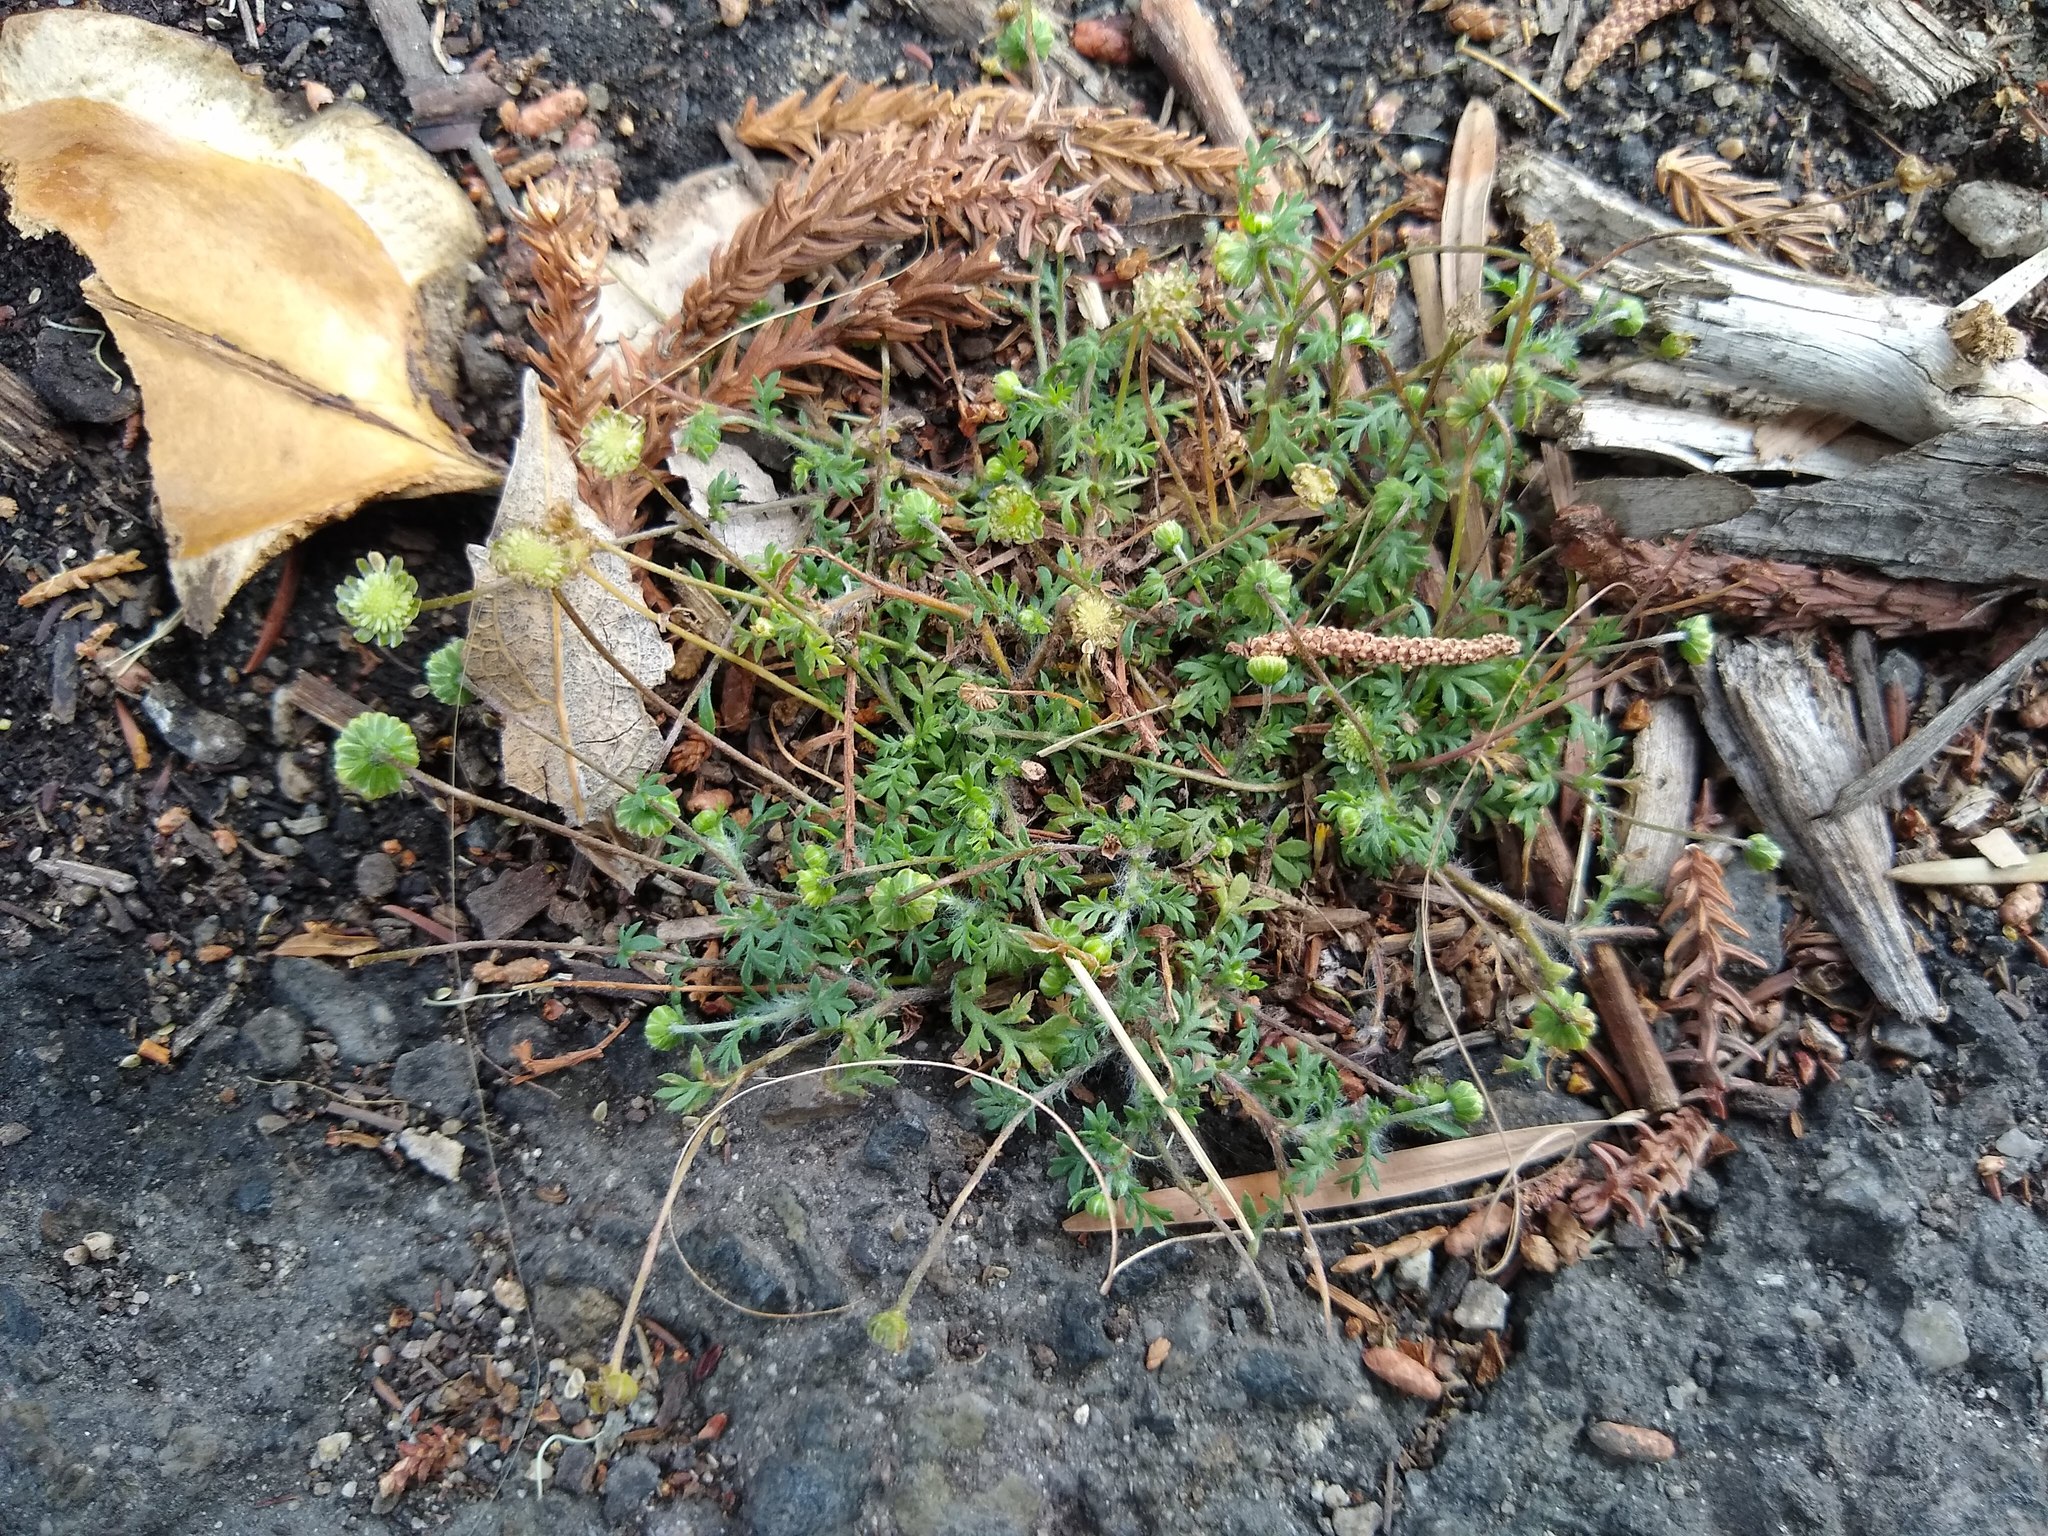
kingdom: Plantae
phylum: Tracheophyta
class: Magnoliopsida
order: Asterales
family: Asteraceae
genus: Cotula
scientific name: Cotula australis
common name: Australian waterbuttons
